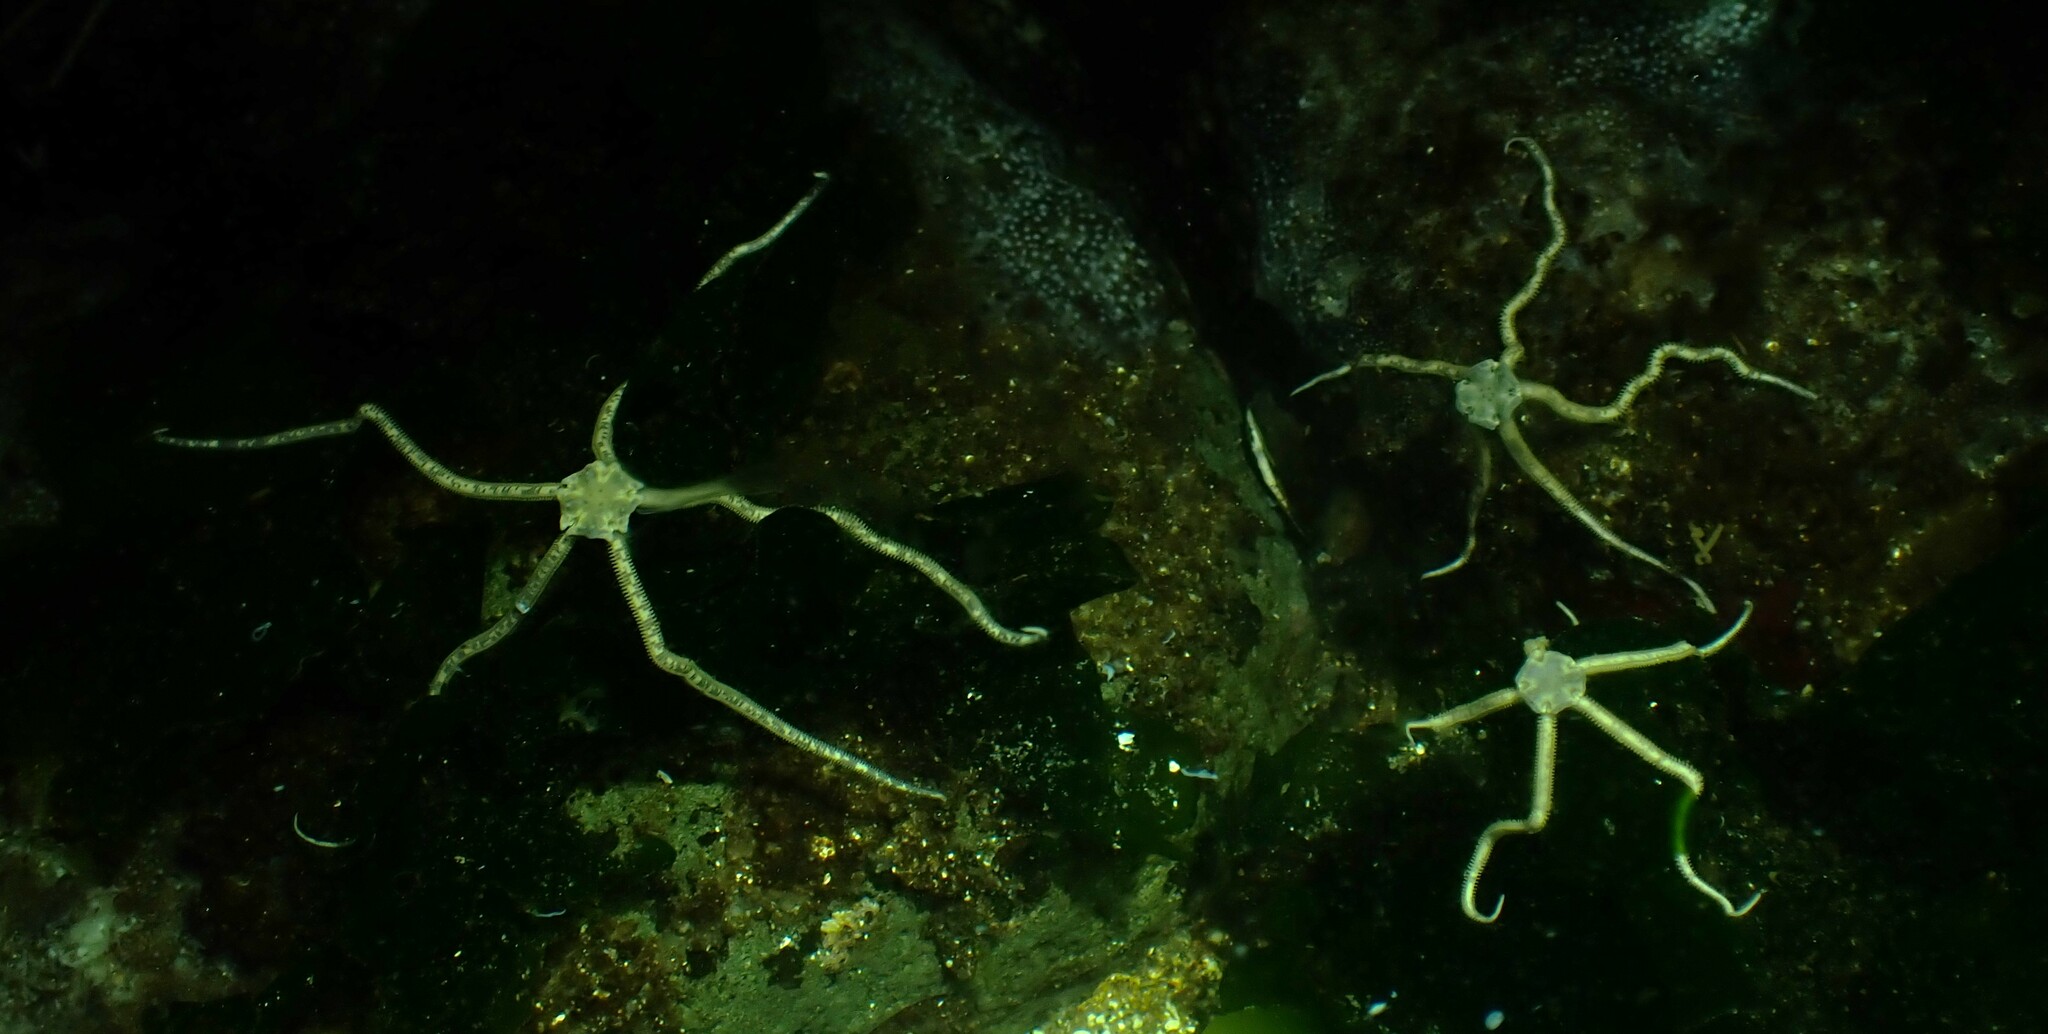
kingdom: Animalia
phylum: Echinodermata
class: Ophiuroidea
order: Amphilepidida
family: Amphiuridae
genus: Amphiodia
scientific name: Amphiodia occidentalis
